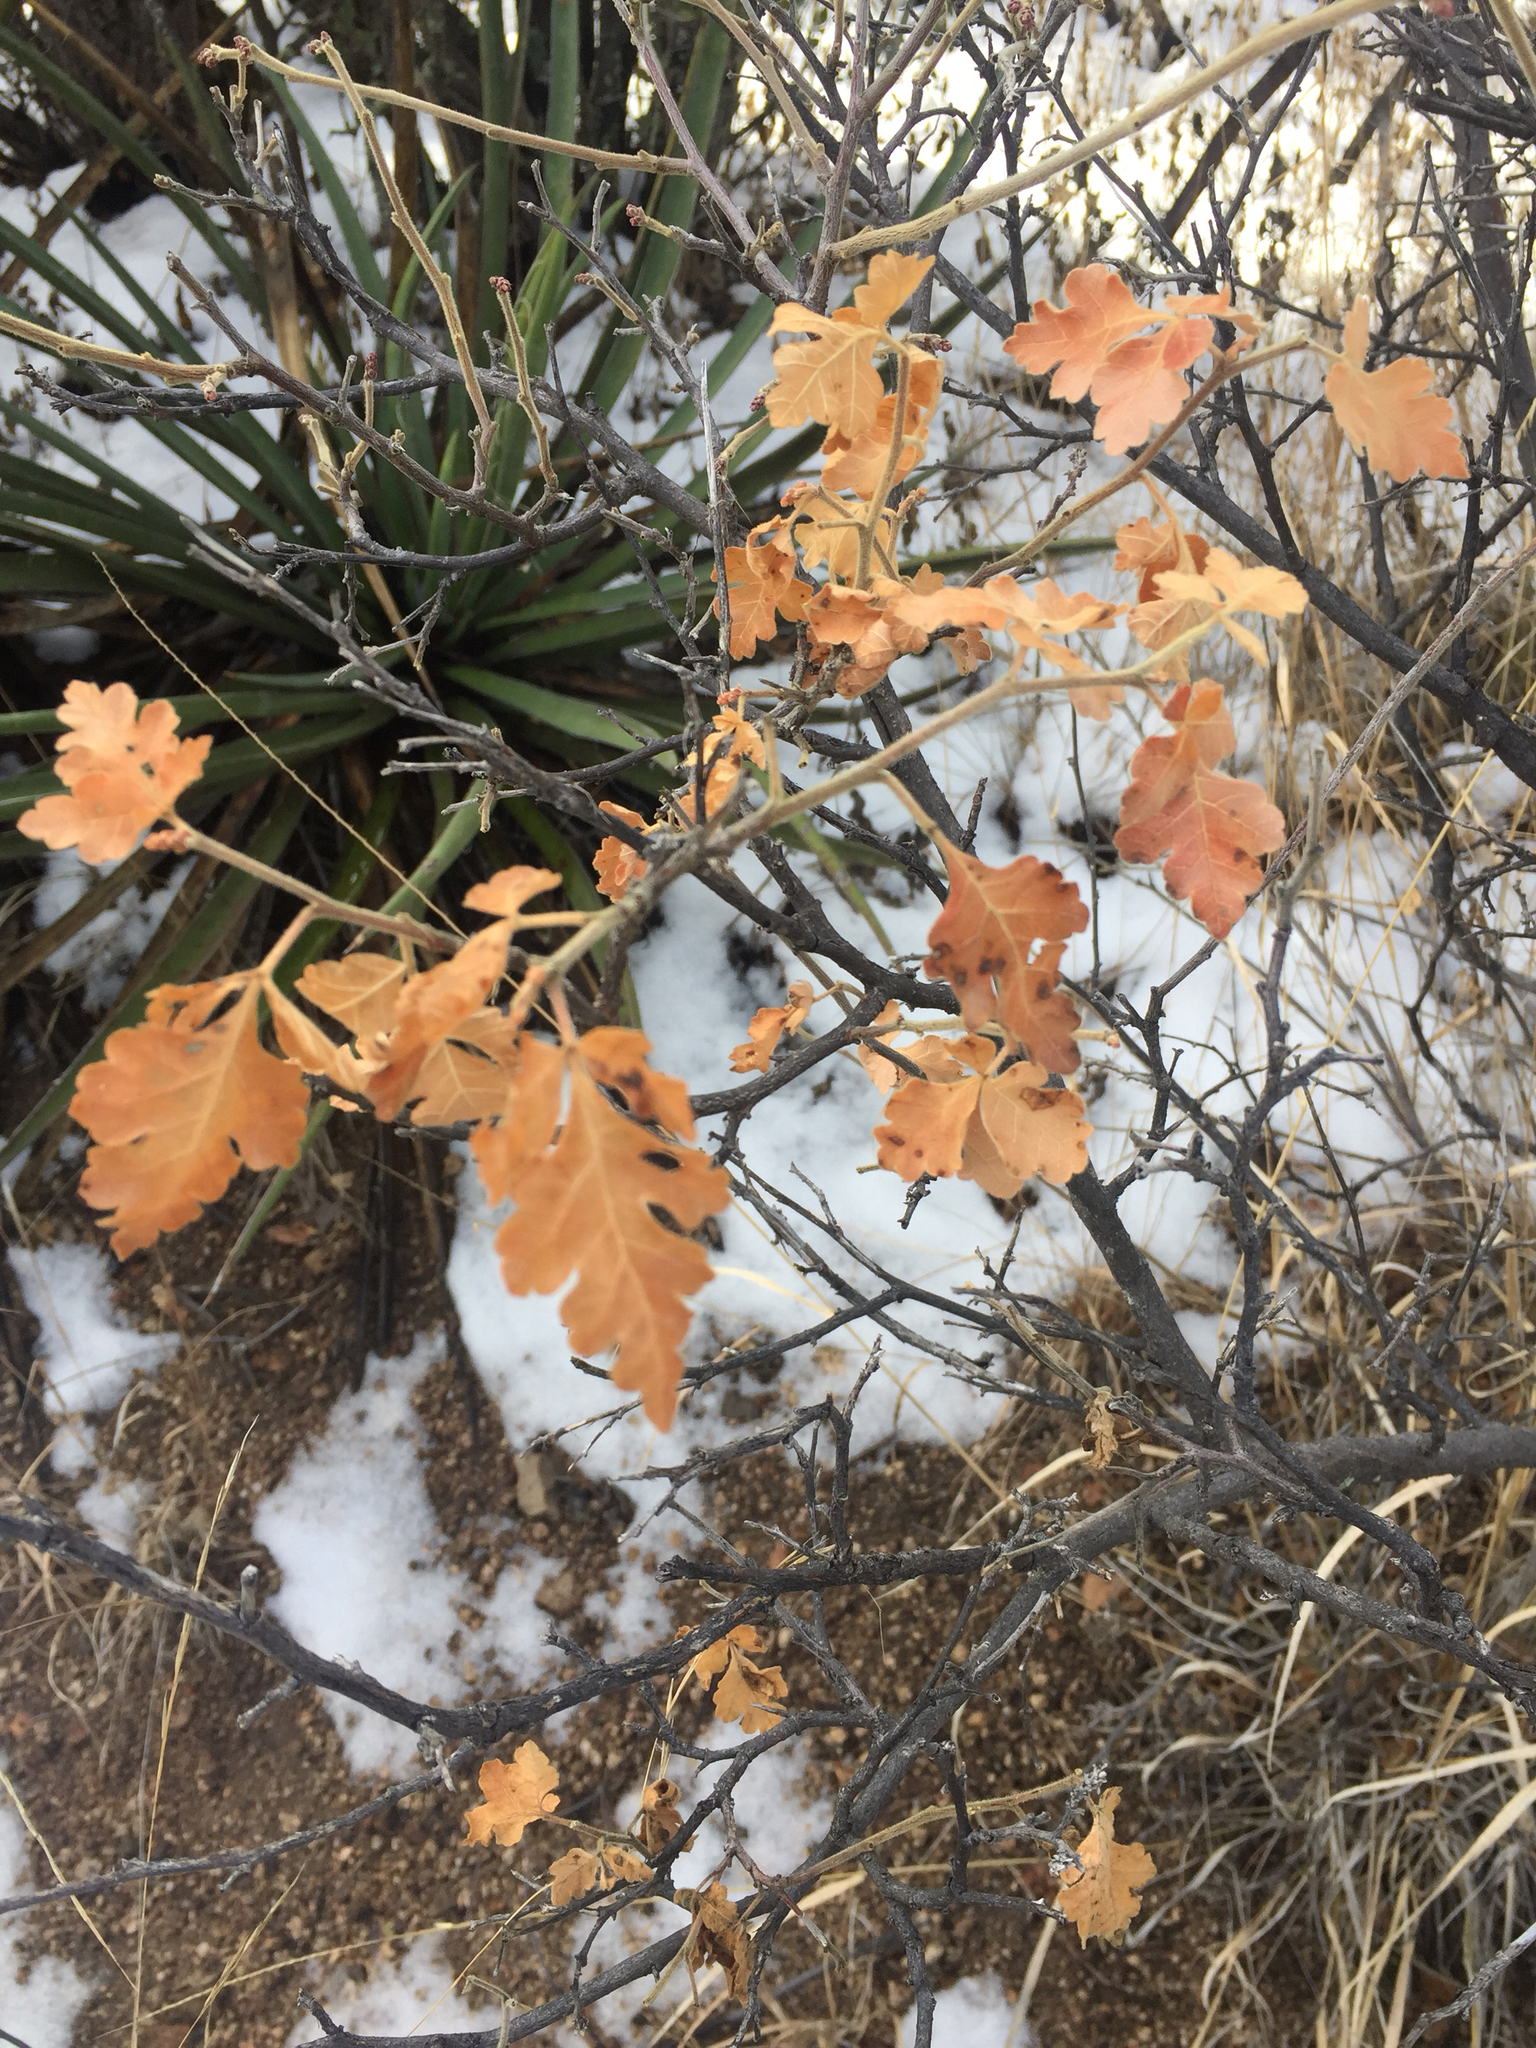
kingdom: Plantae
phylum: Tracheophyta
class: Magnoliopsida
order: Sapindales
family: Anacardiaceae
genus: Rhus
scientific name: Rhus aromatica
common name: Aromatic sumac
